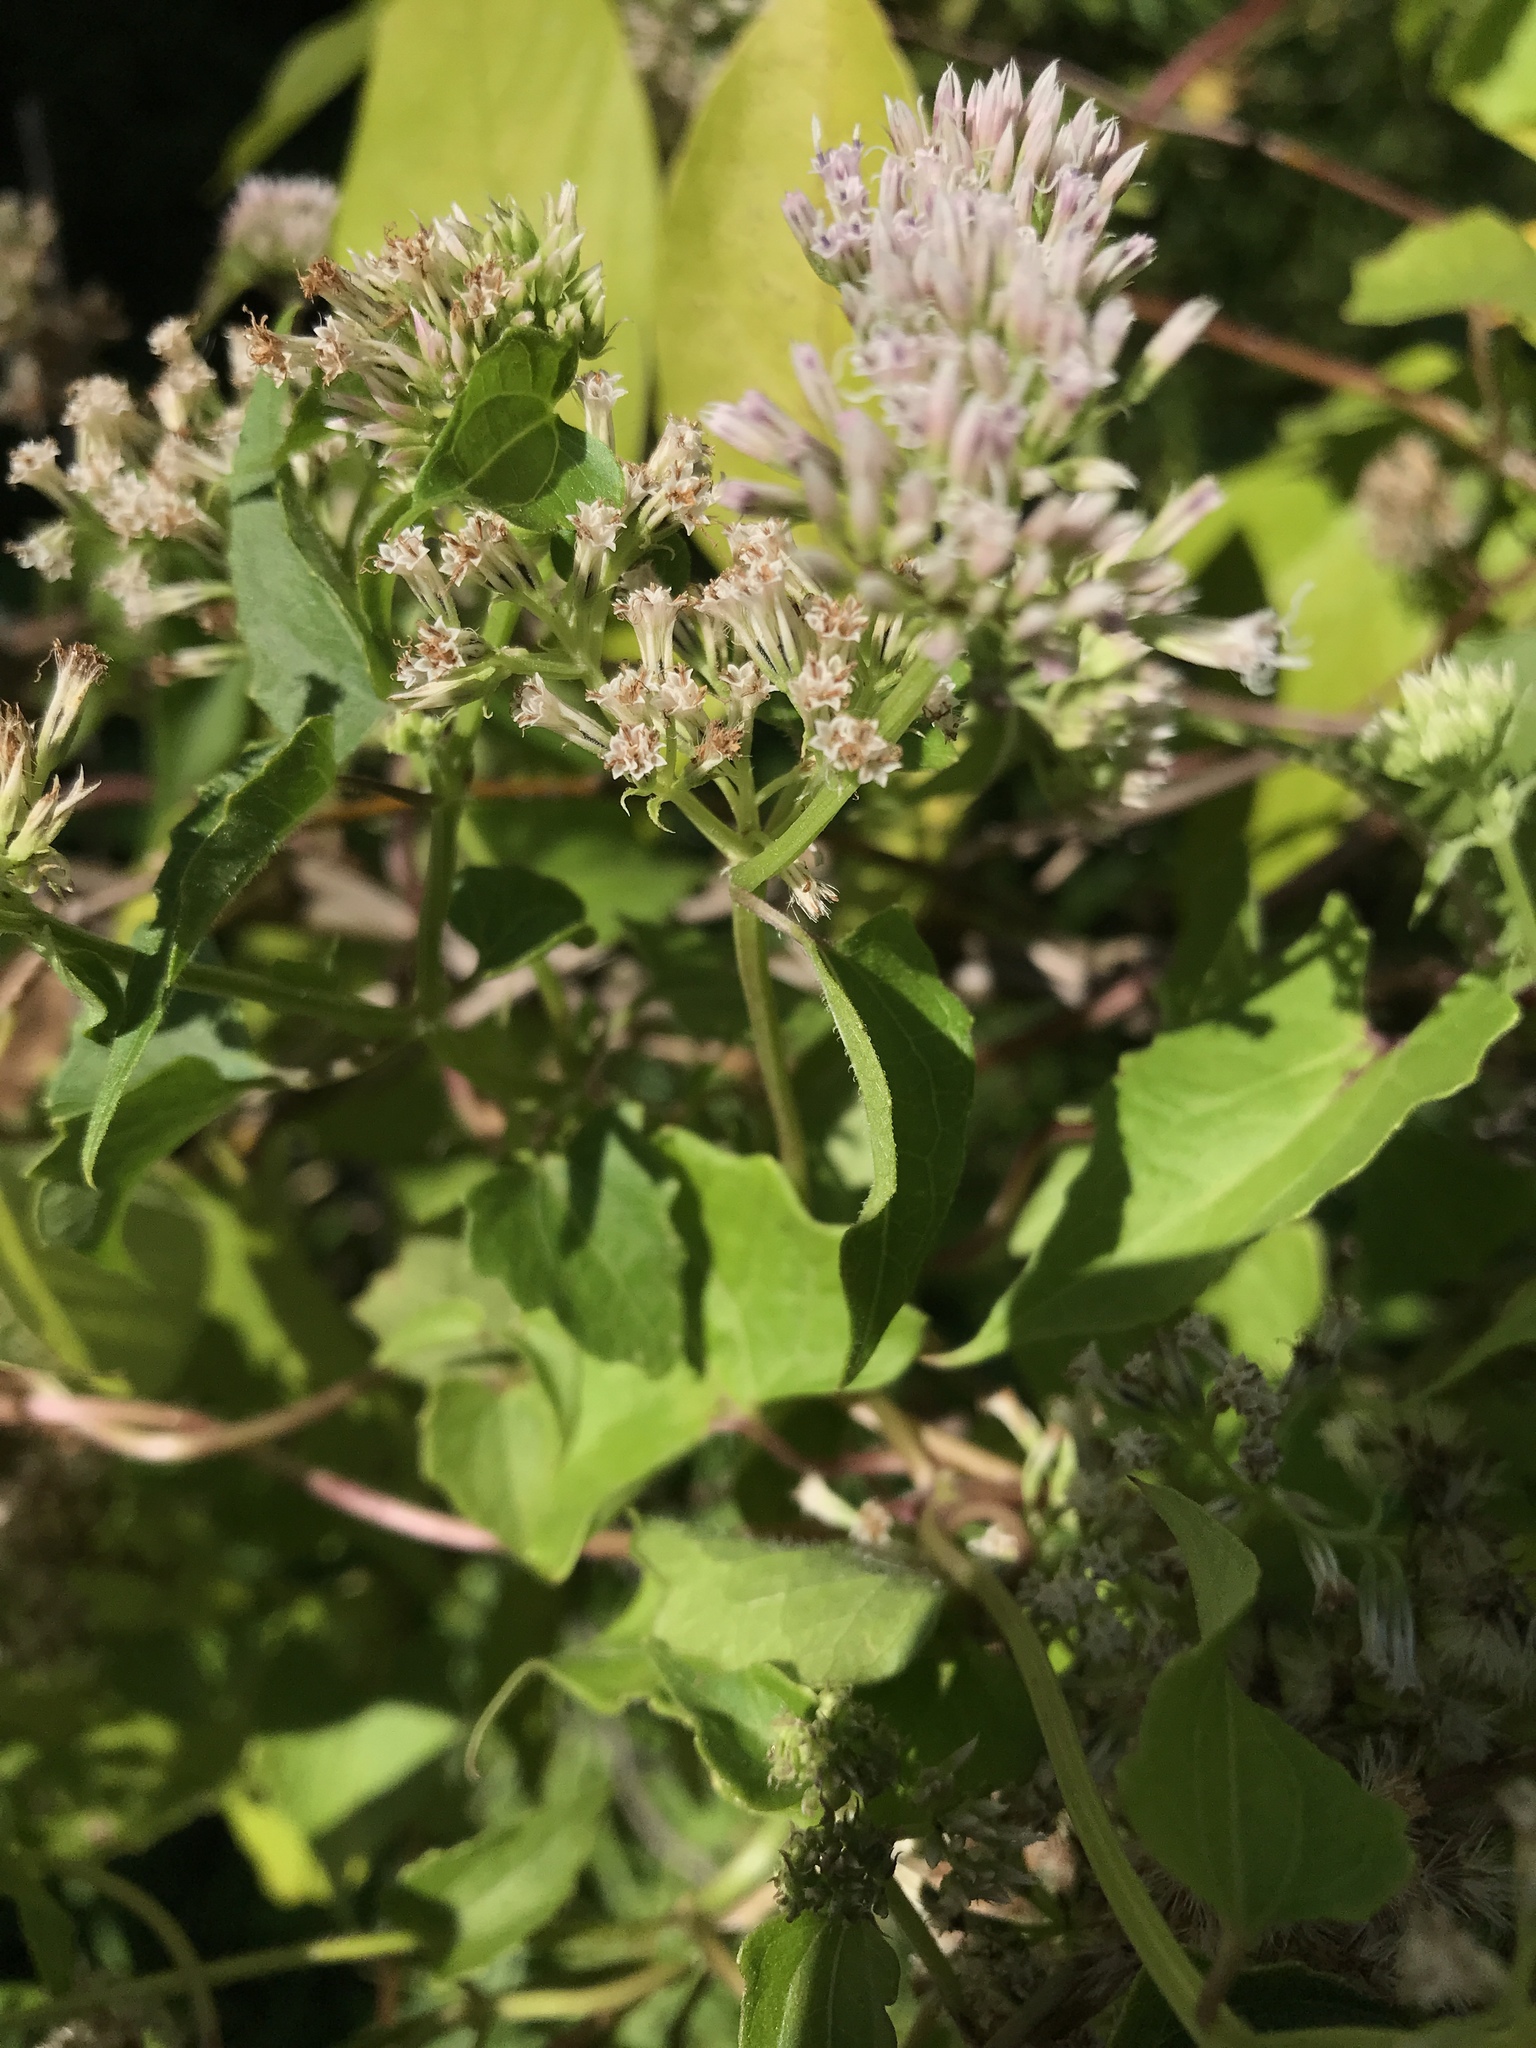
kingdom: Plantae
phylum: Tracheophyta
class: Magnoliopsida
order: Asterales
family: Asteraceae
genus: Mikania
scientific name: Mikania scandens
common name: Climbing hempvine
